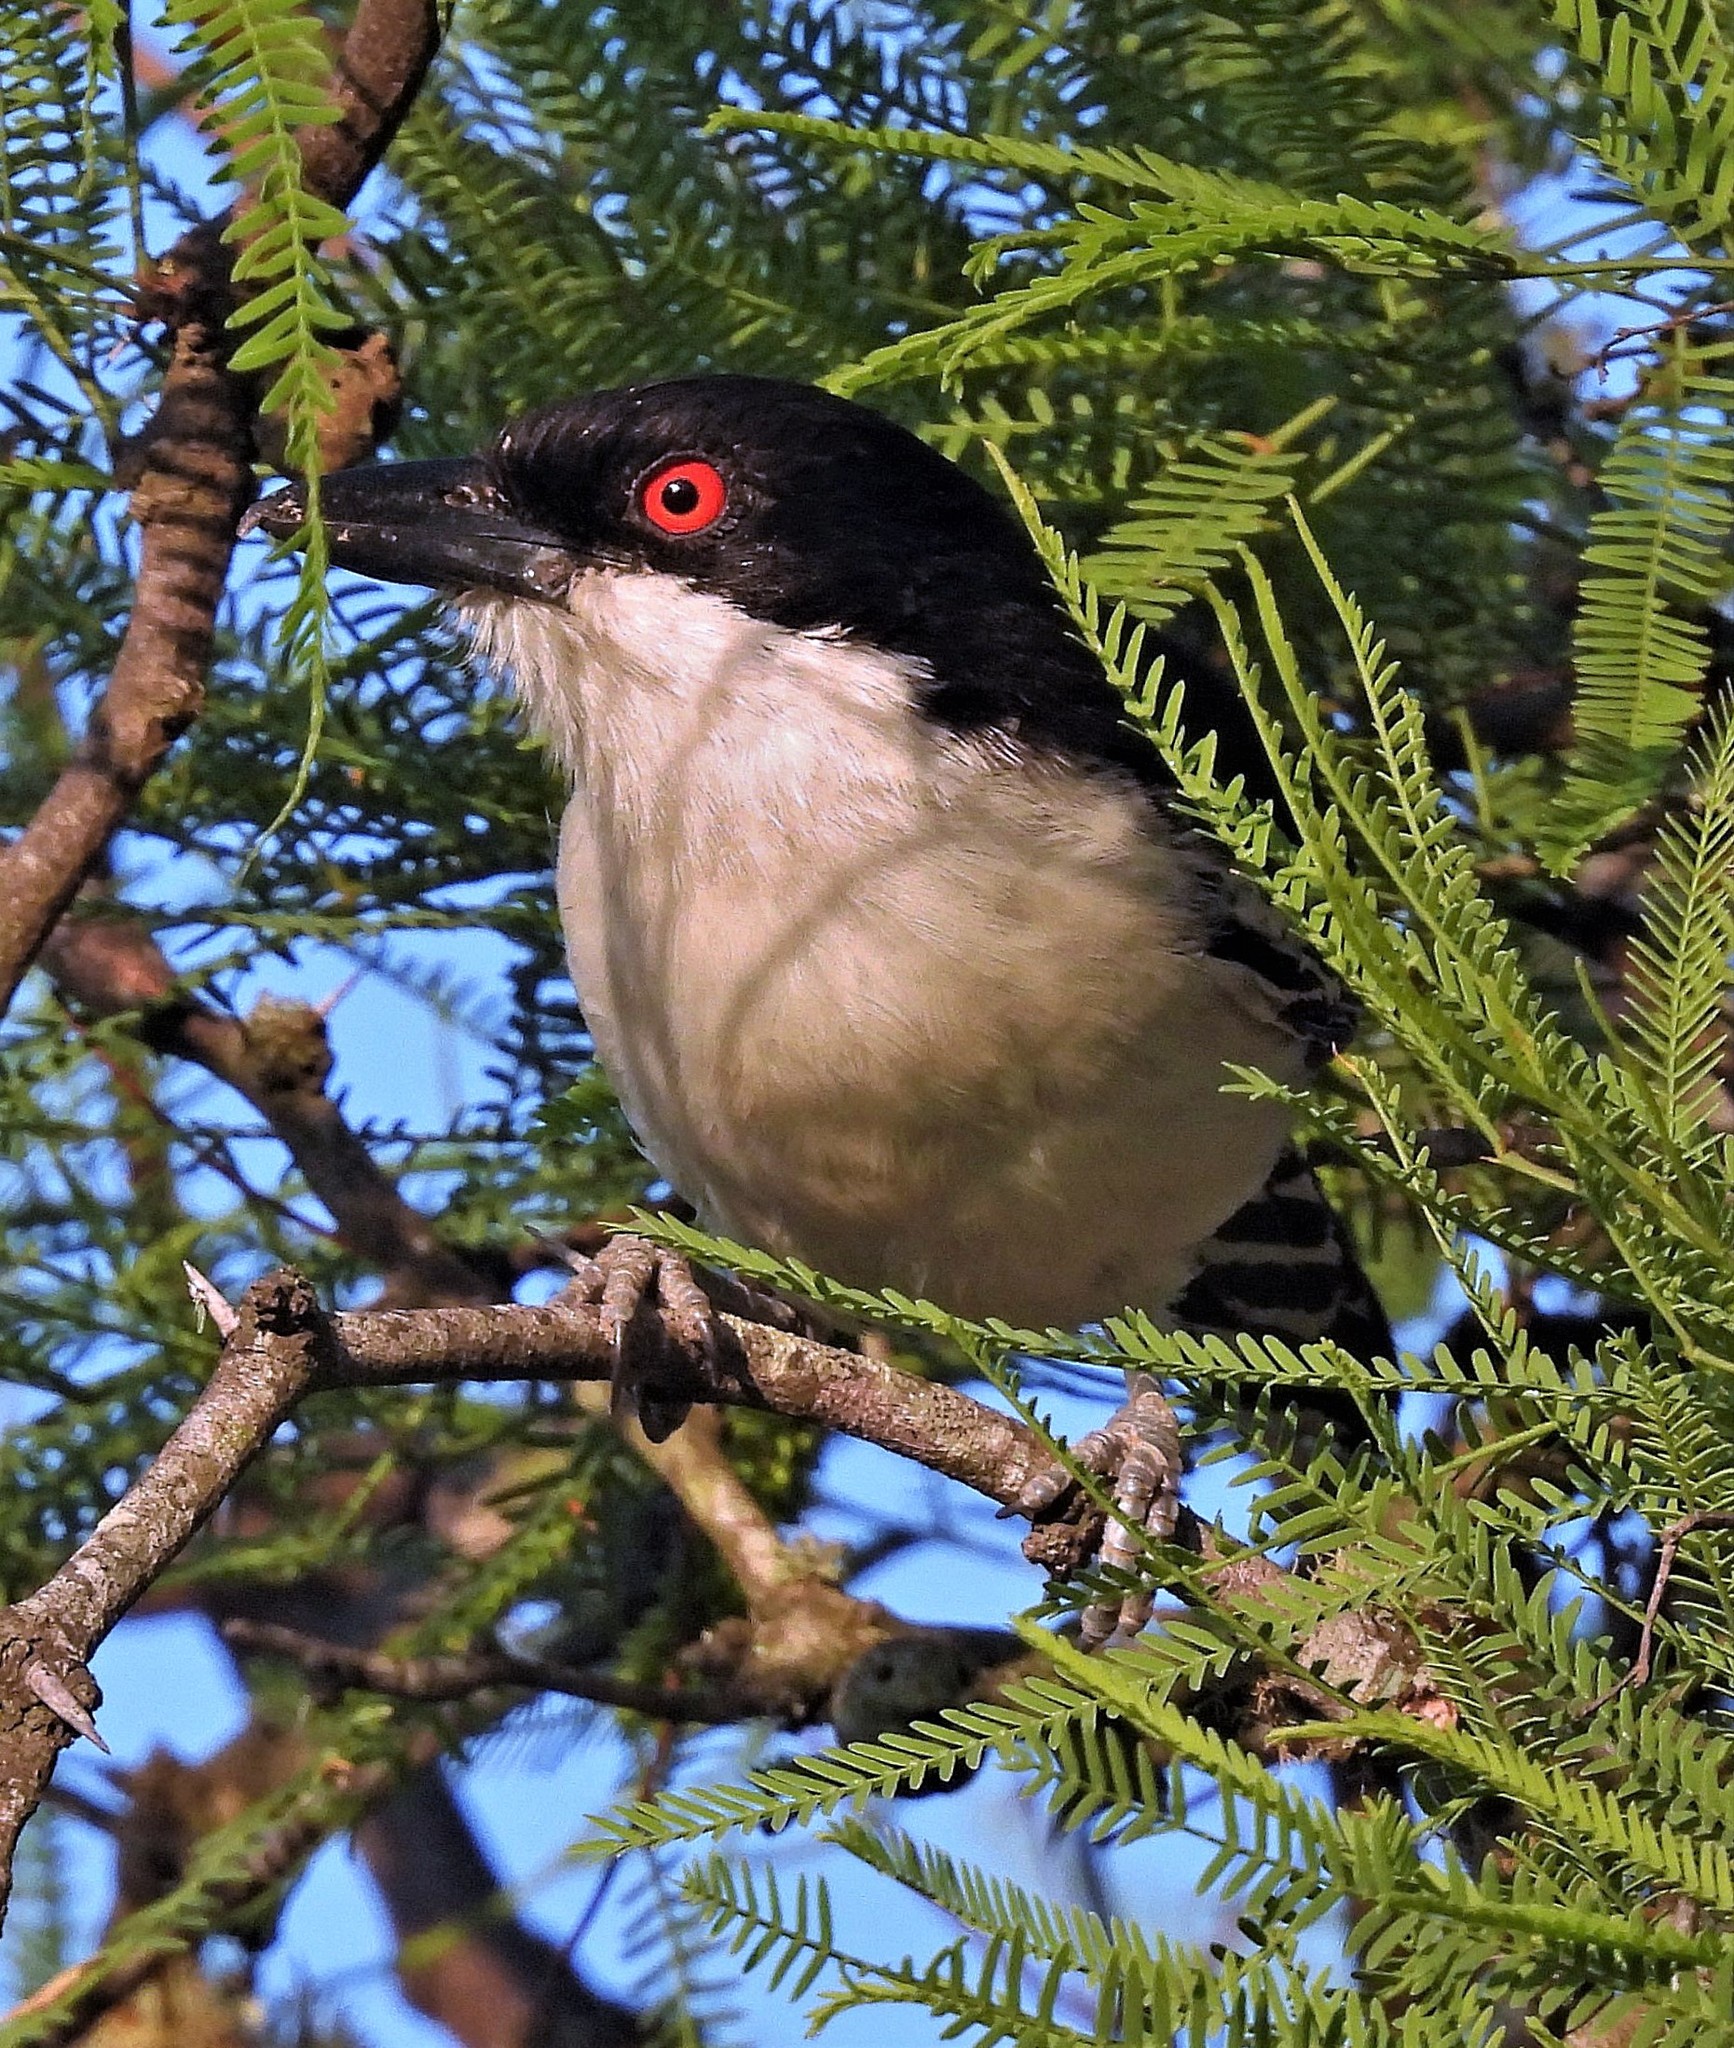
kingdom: Animalia
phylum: Chordata
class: Aves
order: Passeriformes
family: Thamnophilidae
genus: Taraba
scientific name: Taraba major
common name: Great antshrike
